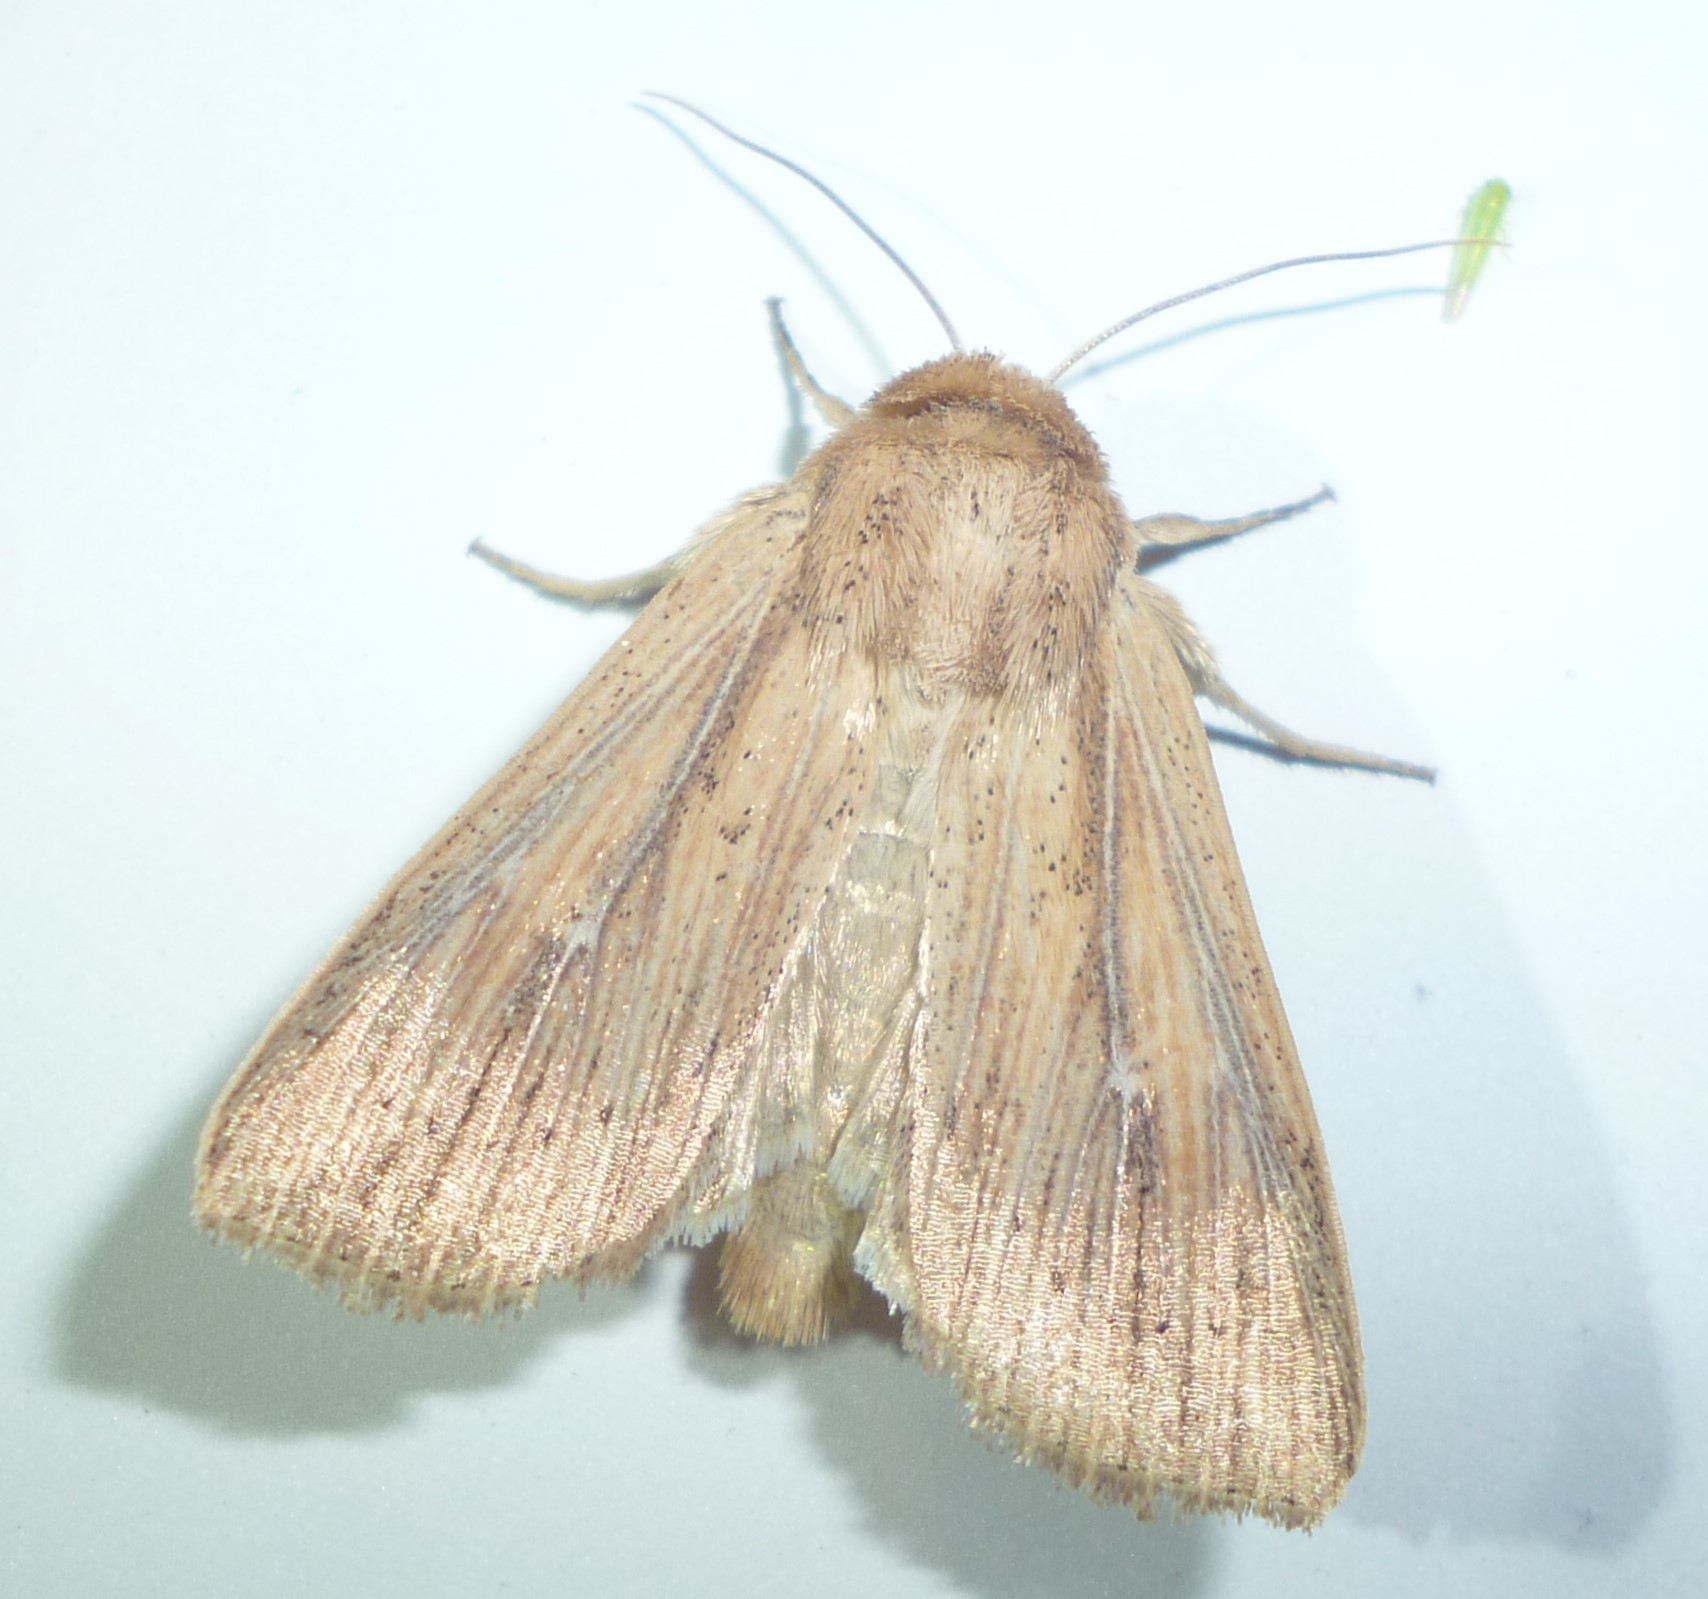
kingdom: Animalia
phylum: Arthropoda
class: Insecta
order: Lepidoptera
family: Noctuidae
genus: Leucania
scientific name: Leucania linda
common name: Linda's wainscot
